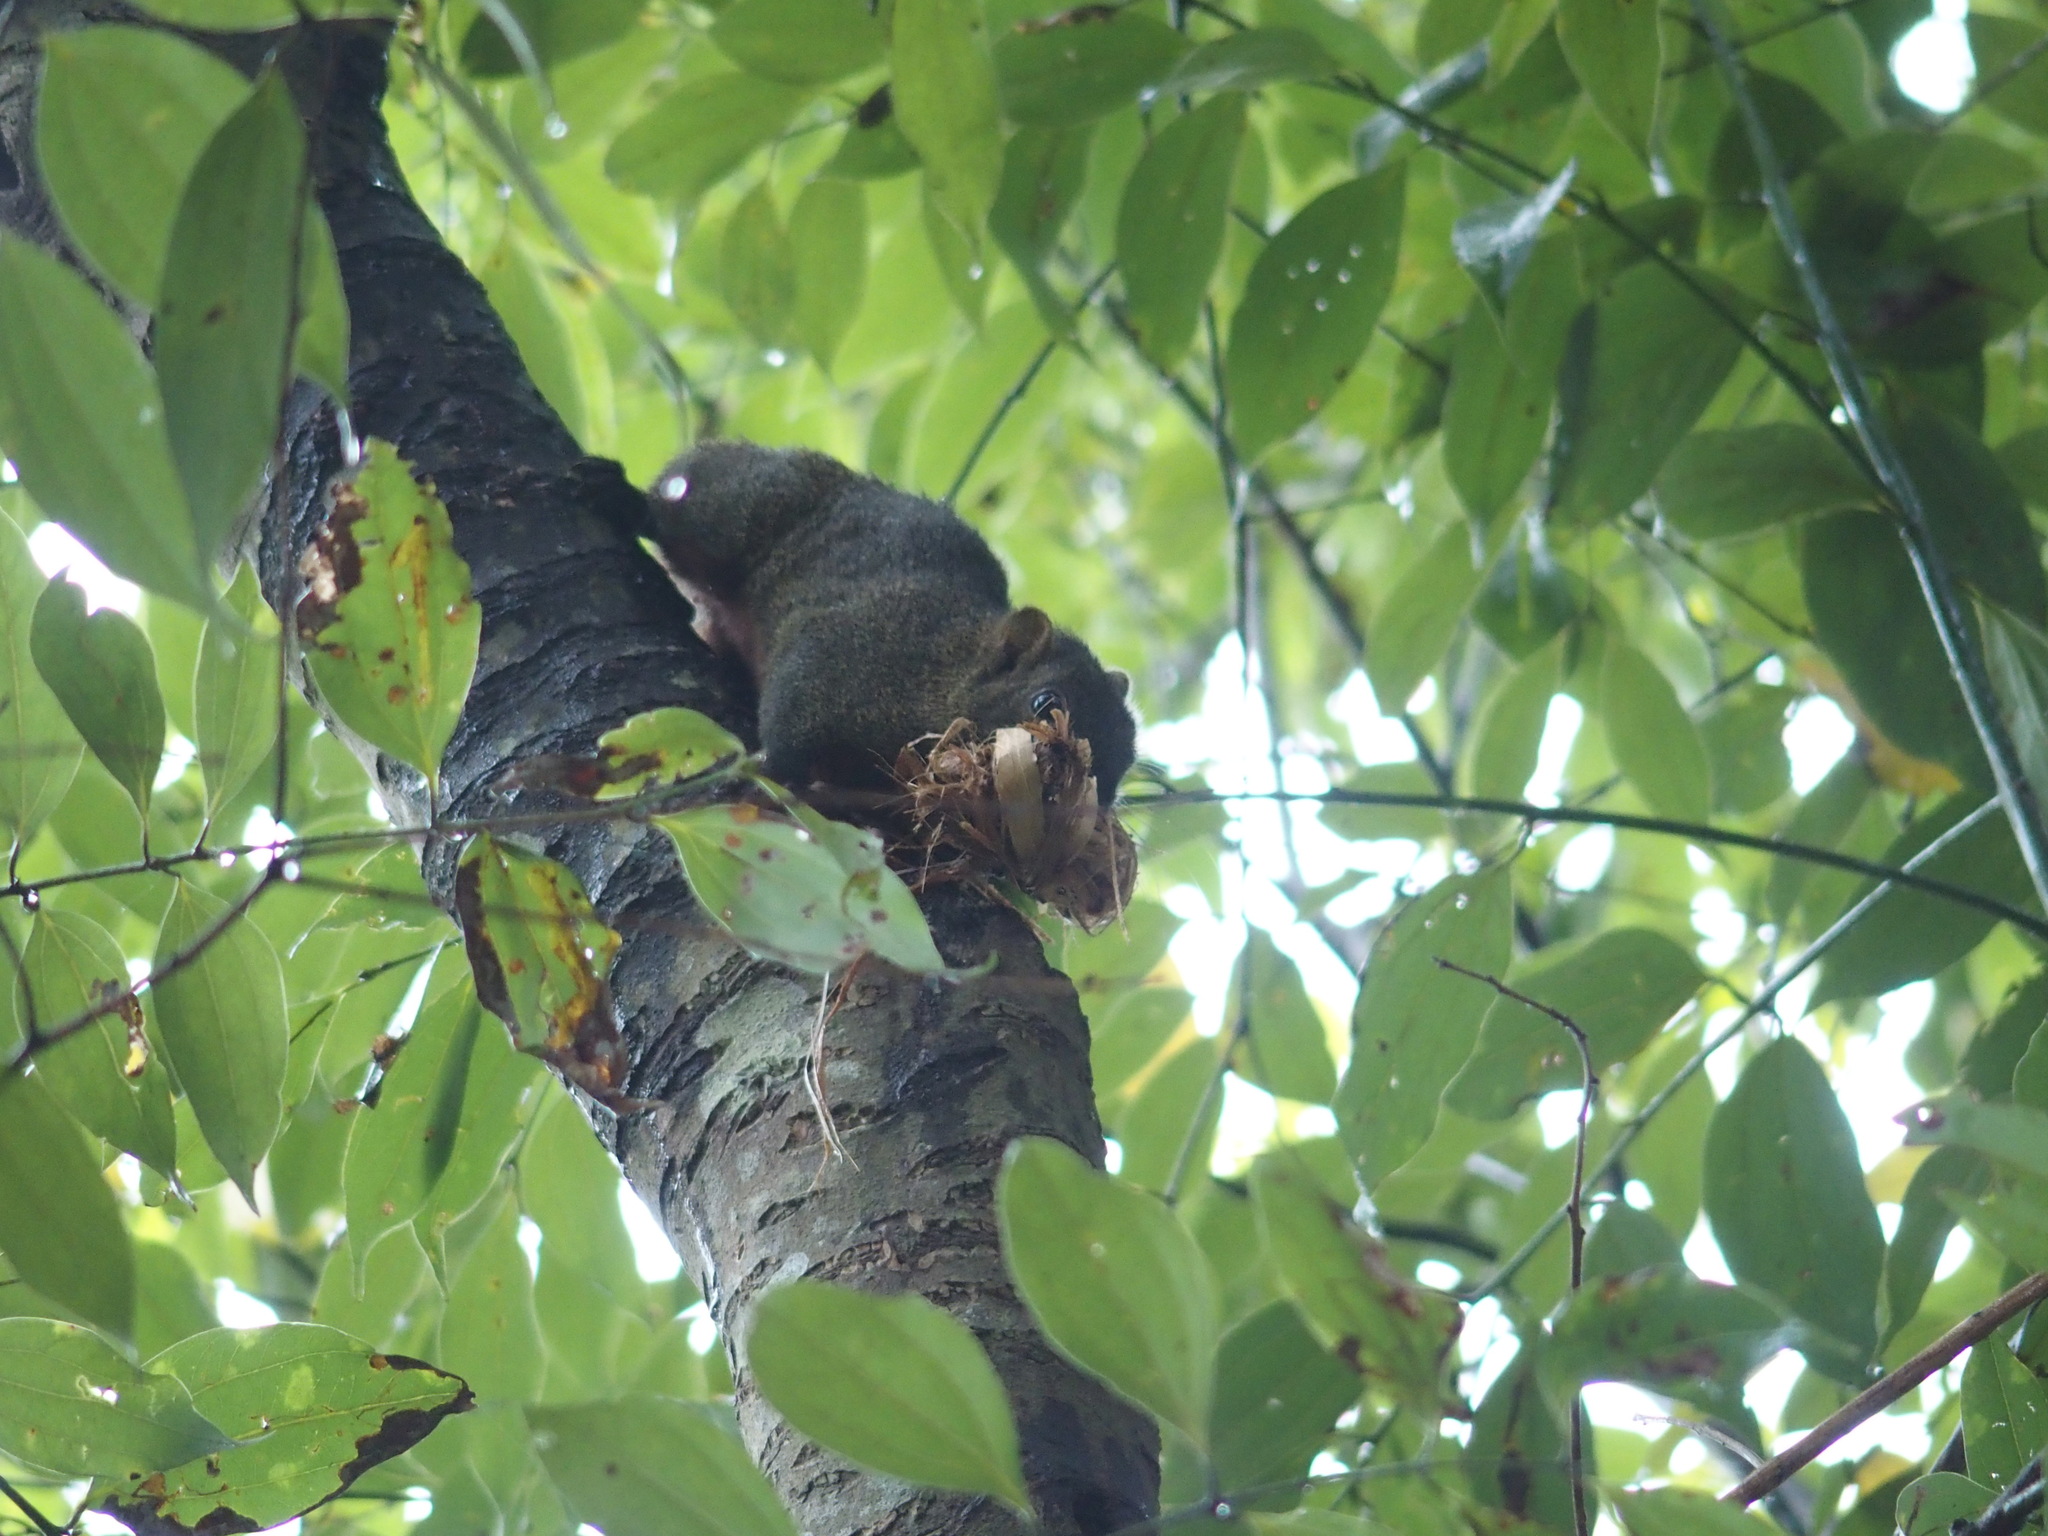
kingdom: Animalia
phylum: Chordata
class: Mammalia
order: Rodentia
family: Sciuridae
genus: Callosciurus
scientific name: Callosciurus erythraeus
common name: Pallas's squirrel
